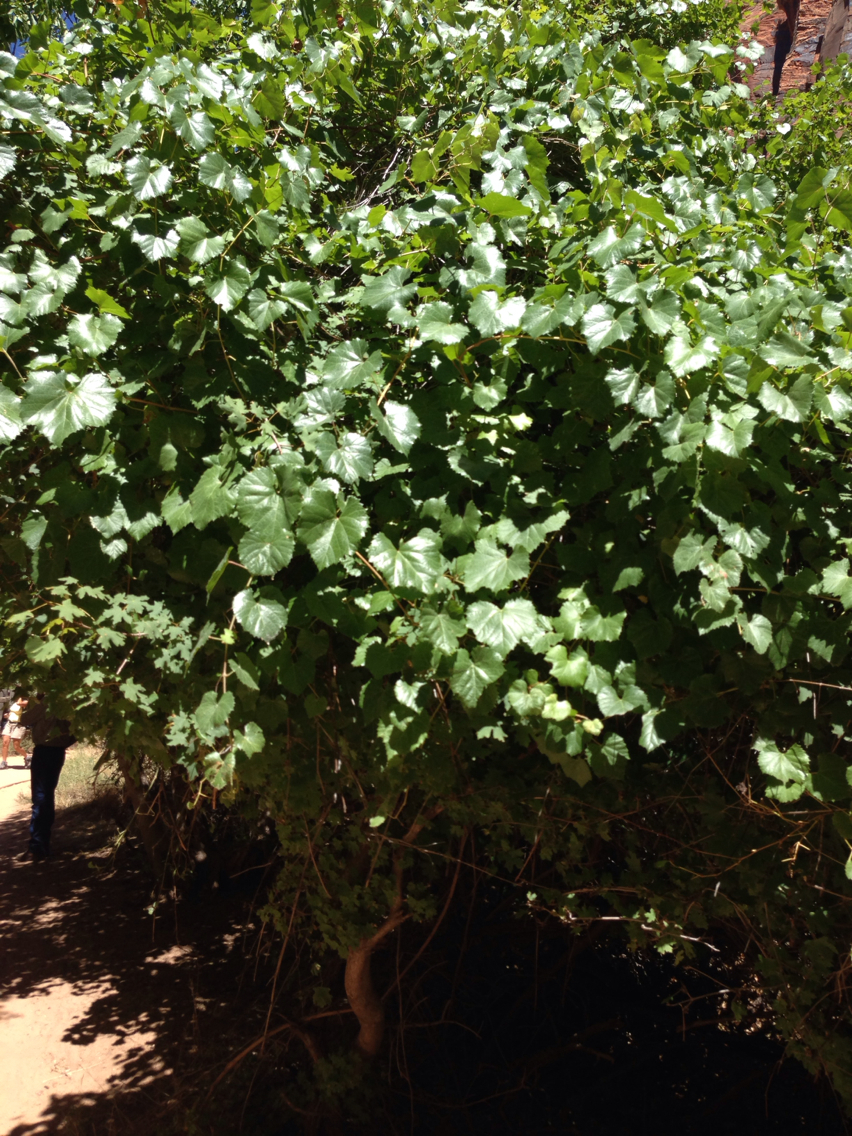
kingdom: Plantae
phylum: Tracheophyta
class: Magnoliopsida
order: Vitales
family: Vitaceae
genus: Vitis
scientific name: Vitis arizonica
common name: Canyon grape
